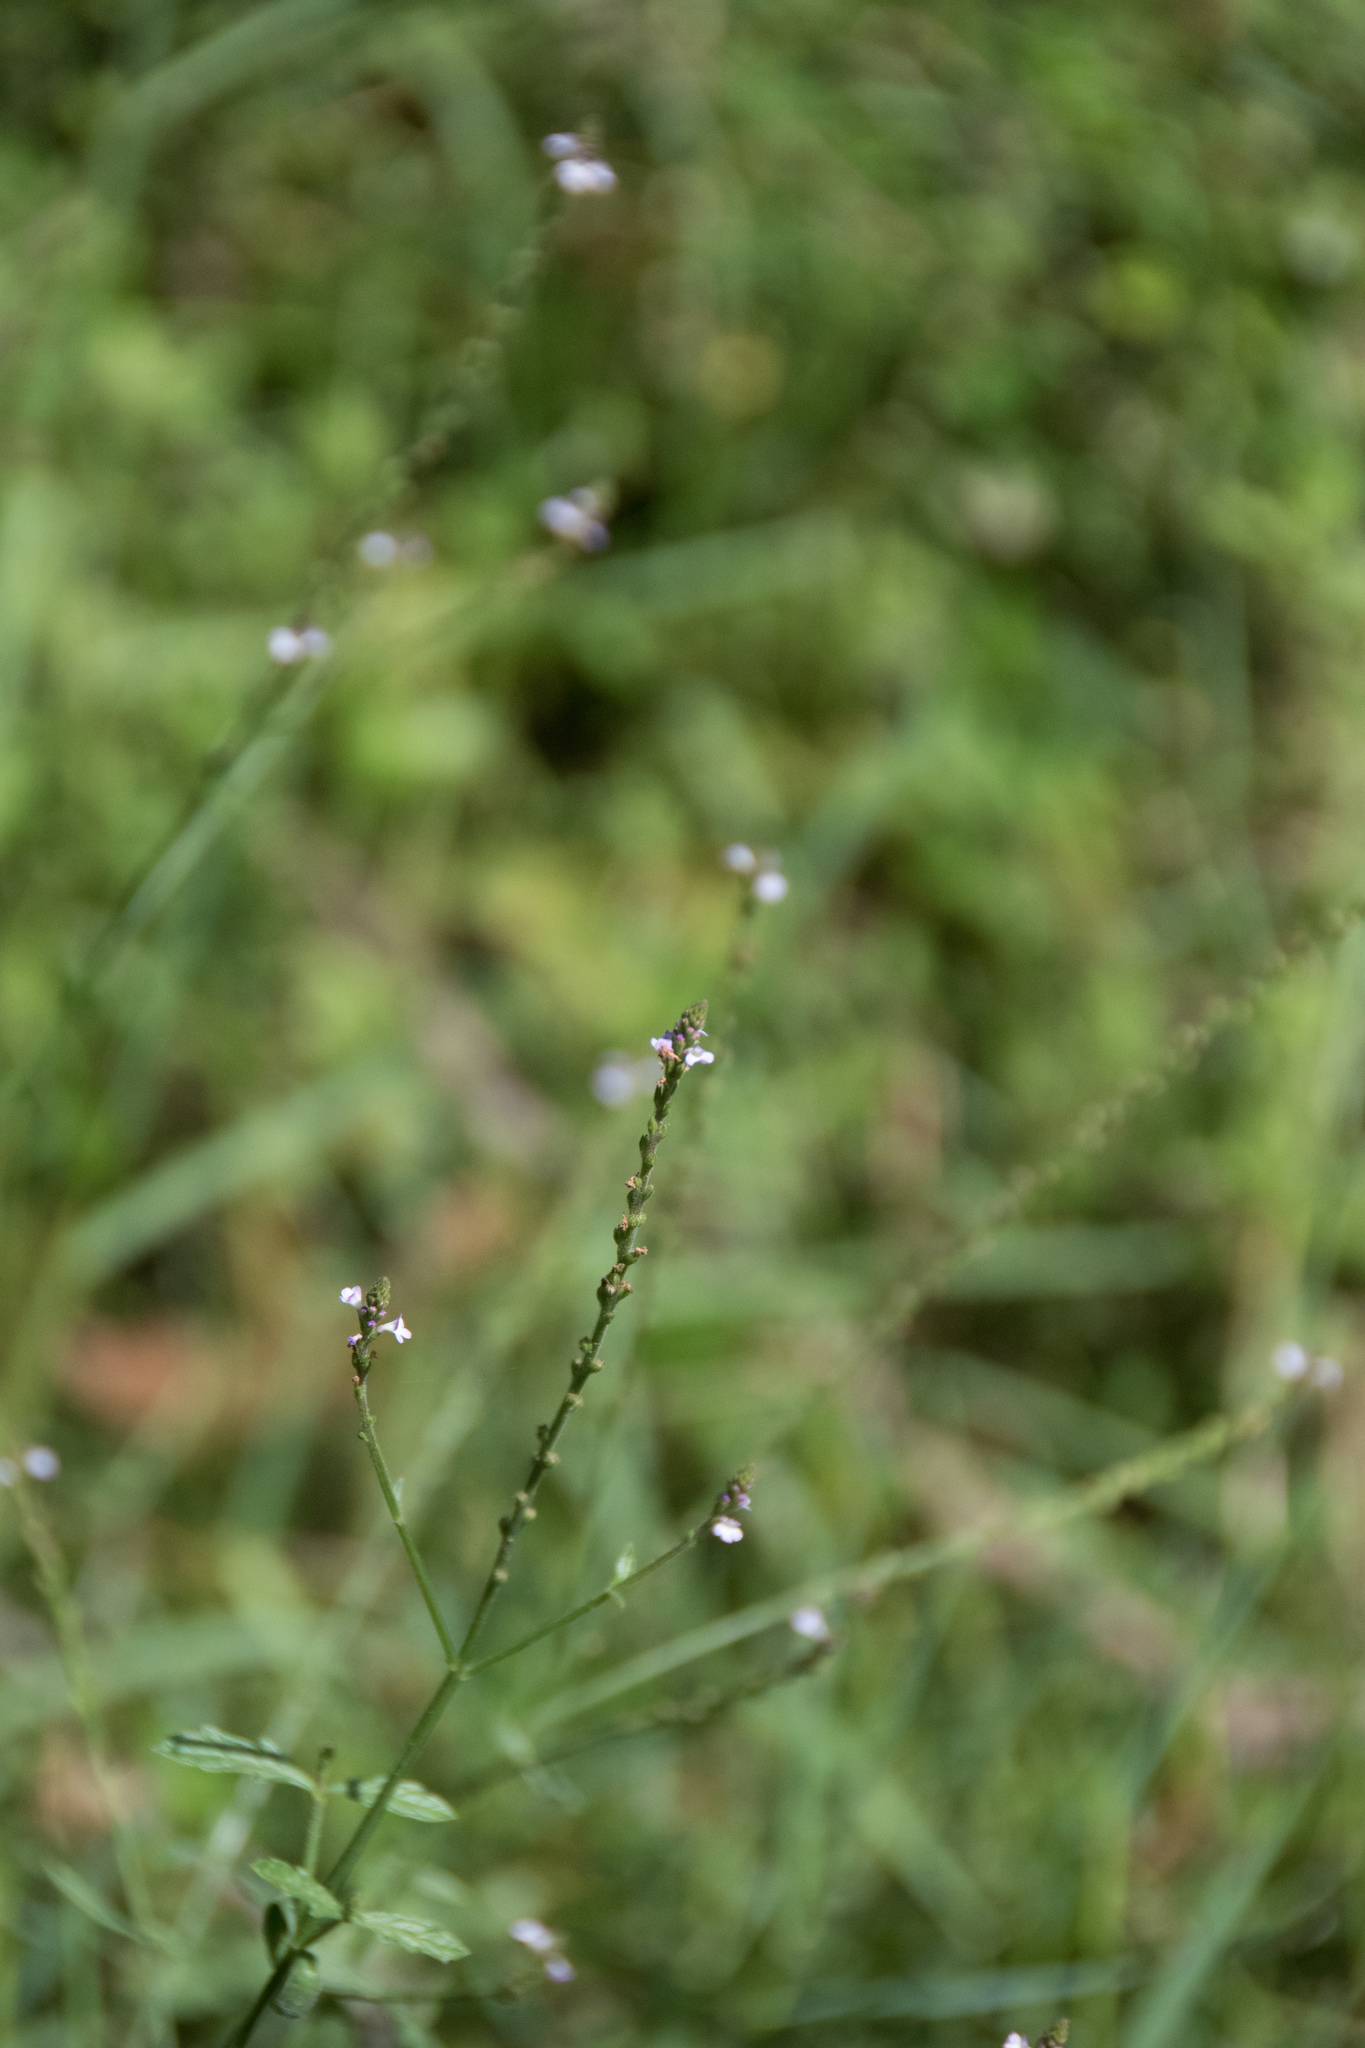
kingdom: Plantae
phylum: Tracheophyta
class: Magnoliopsida
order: Lamiales
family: Verbenaceae
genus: Verbena
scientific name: Verbena officinalis
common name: Vervain
